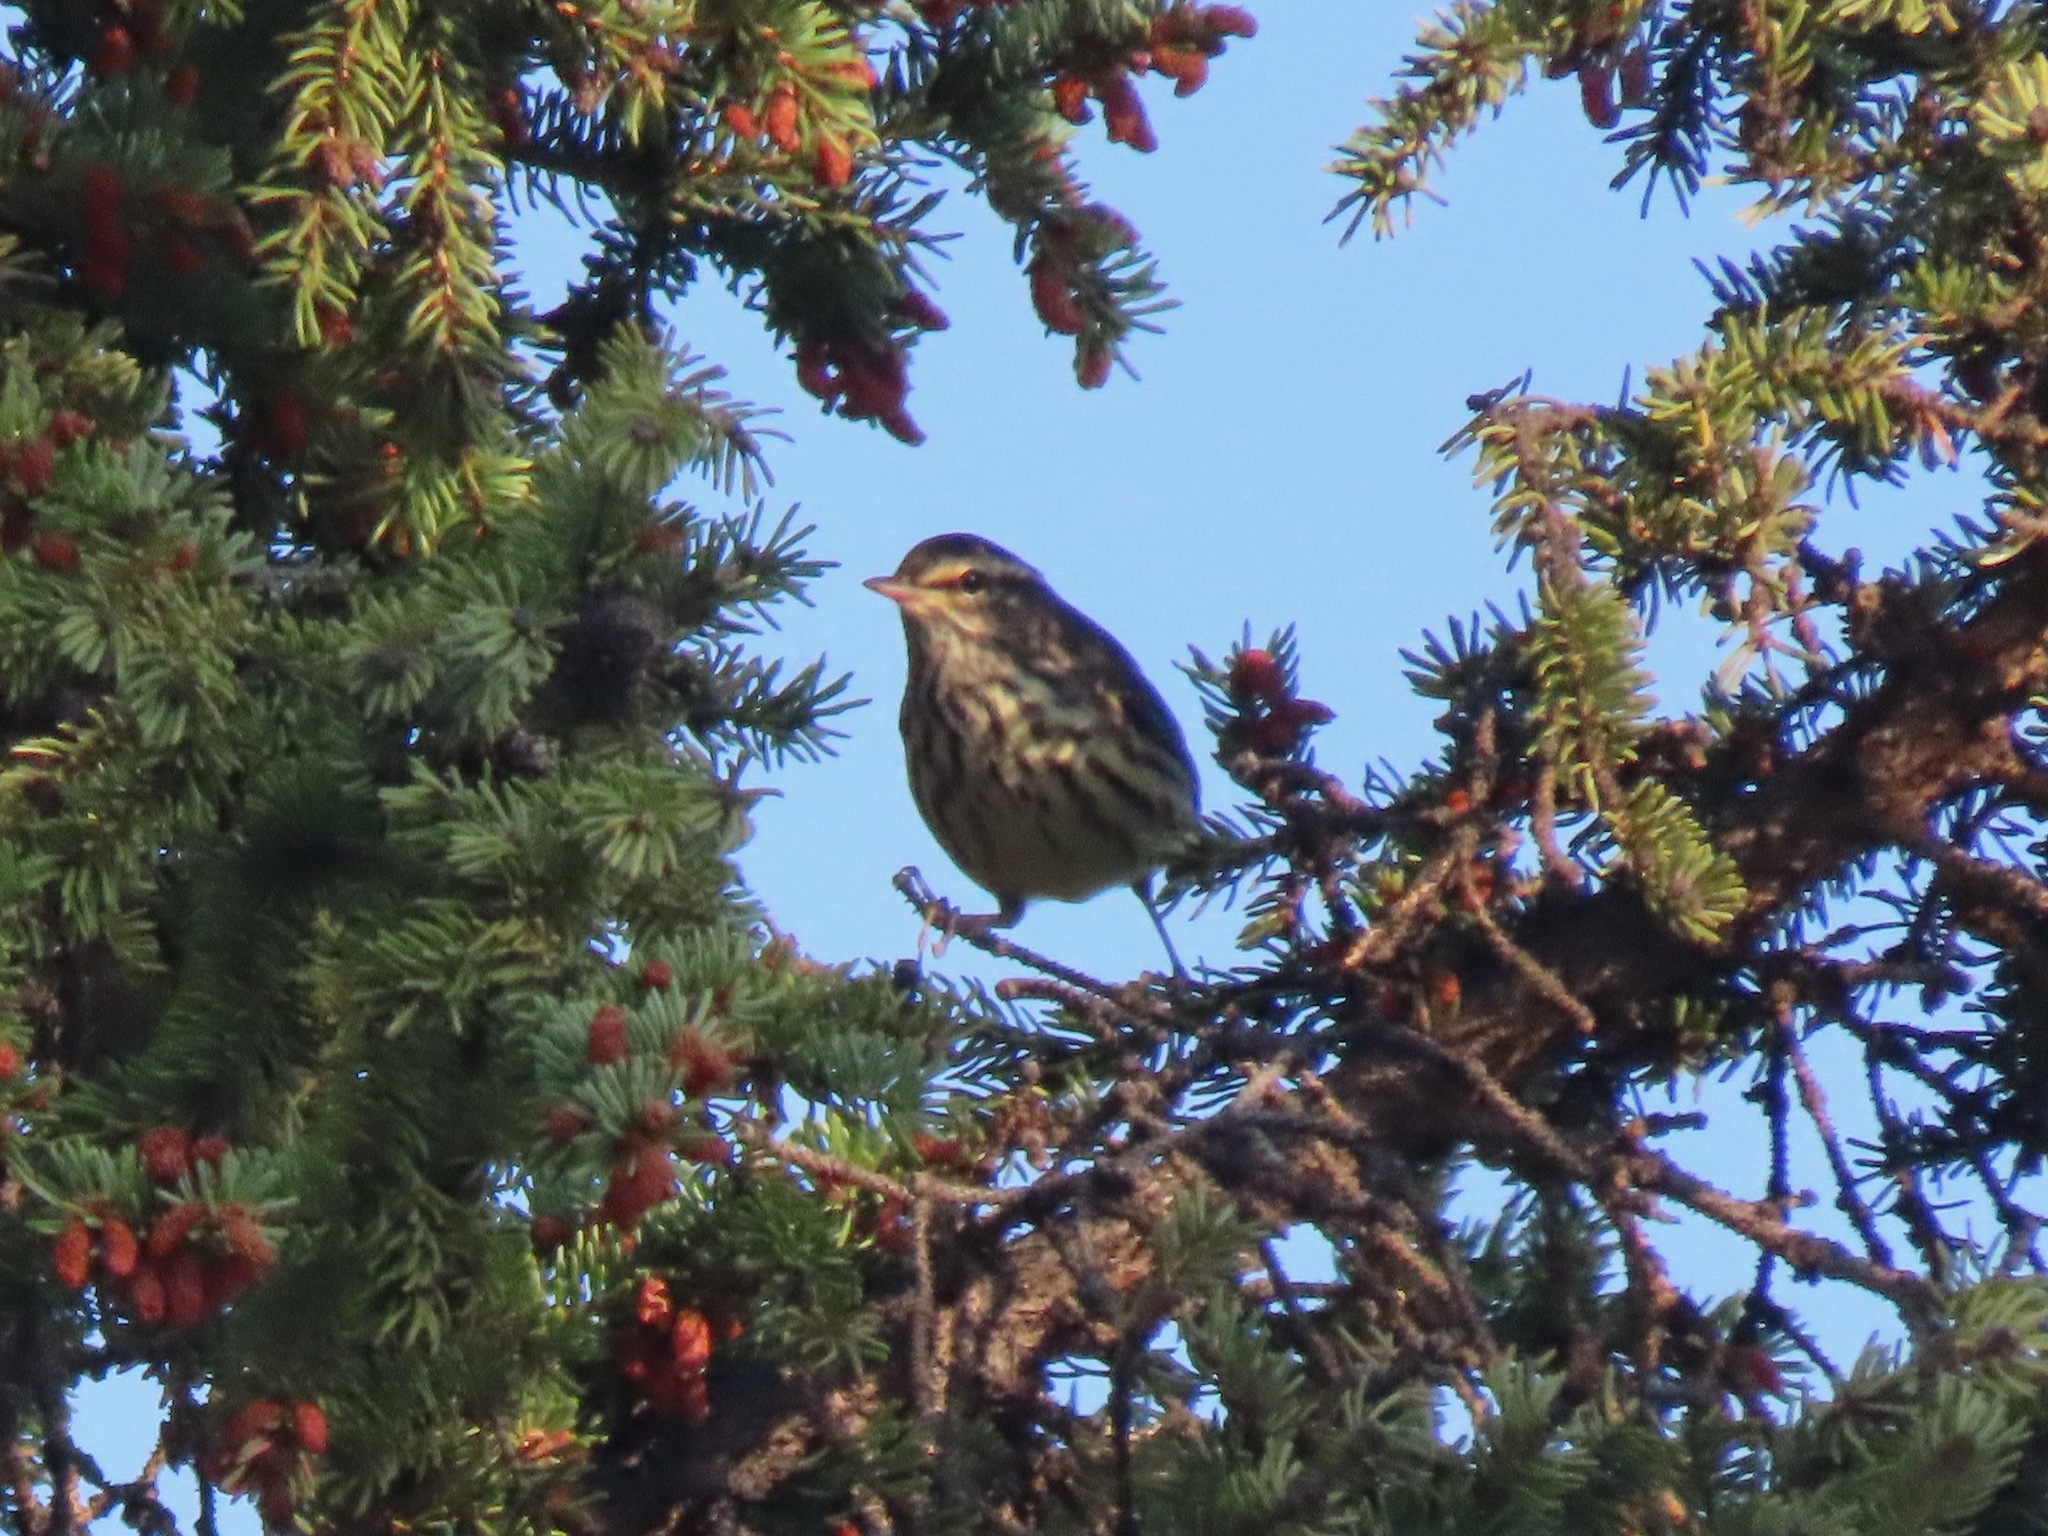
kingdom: Animalia
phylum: Chordata
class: Aves
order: Passeriformes
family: Parulidae
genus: Parkesia
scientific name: Parkesia noveboracensis
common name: Northern waterthrush
